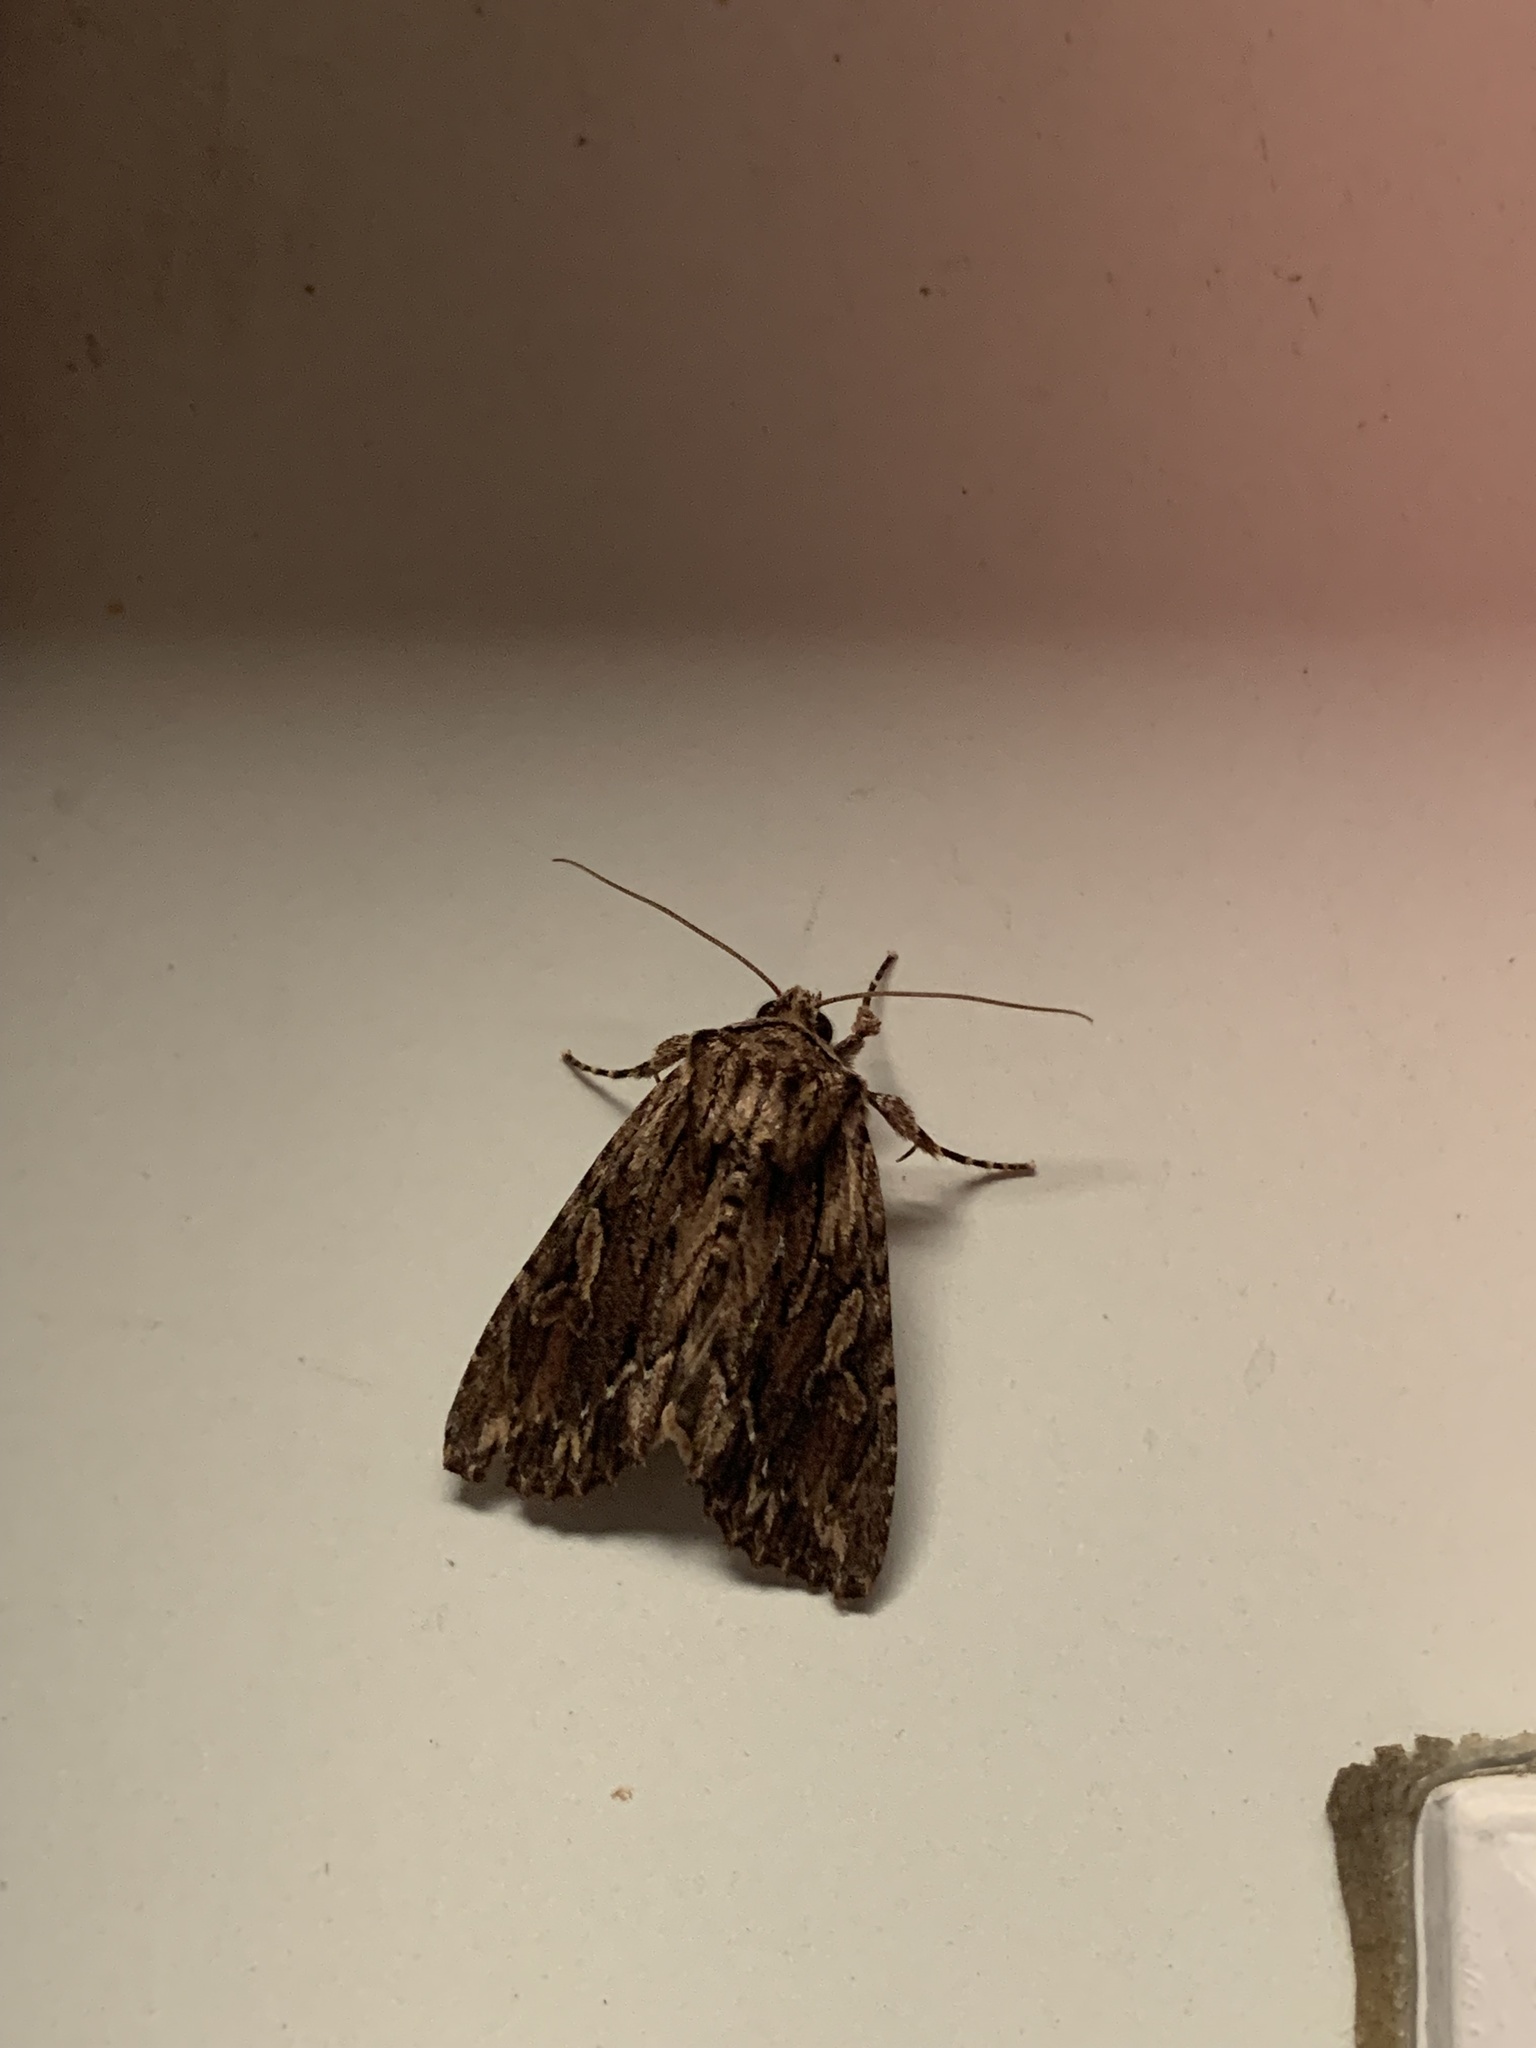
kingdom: Animalia
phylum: Arthropoda
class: Insecta
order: Lepidoptera
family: Noctuidae
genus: Achatia
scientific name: Achatia confusa
